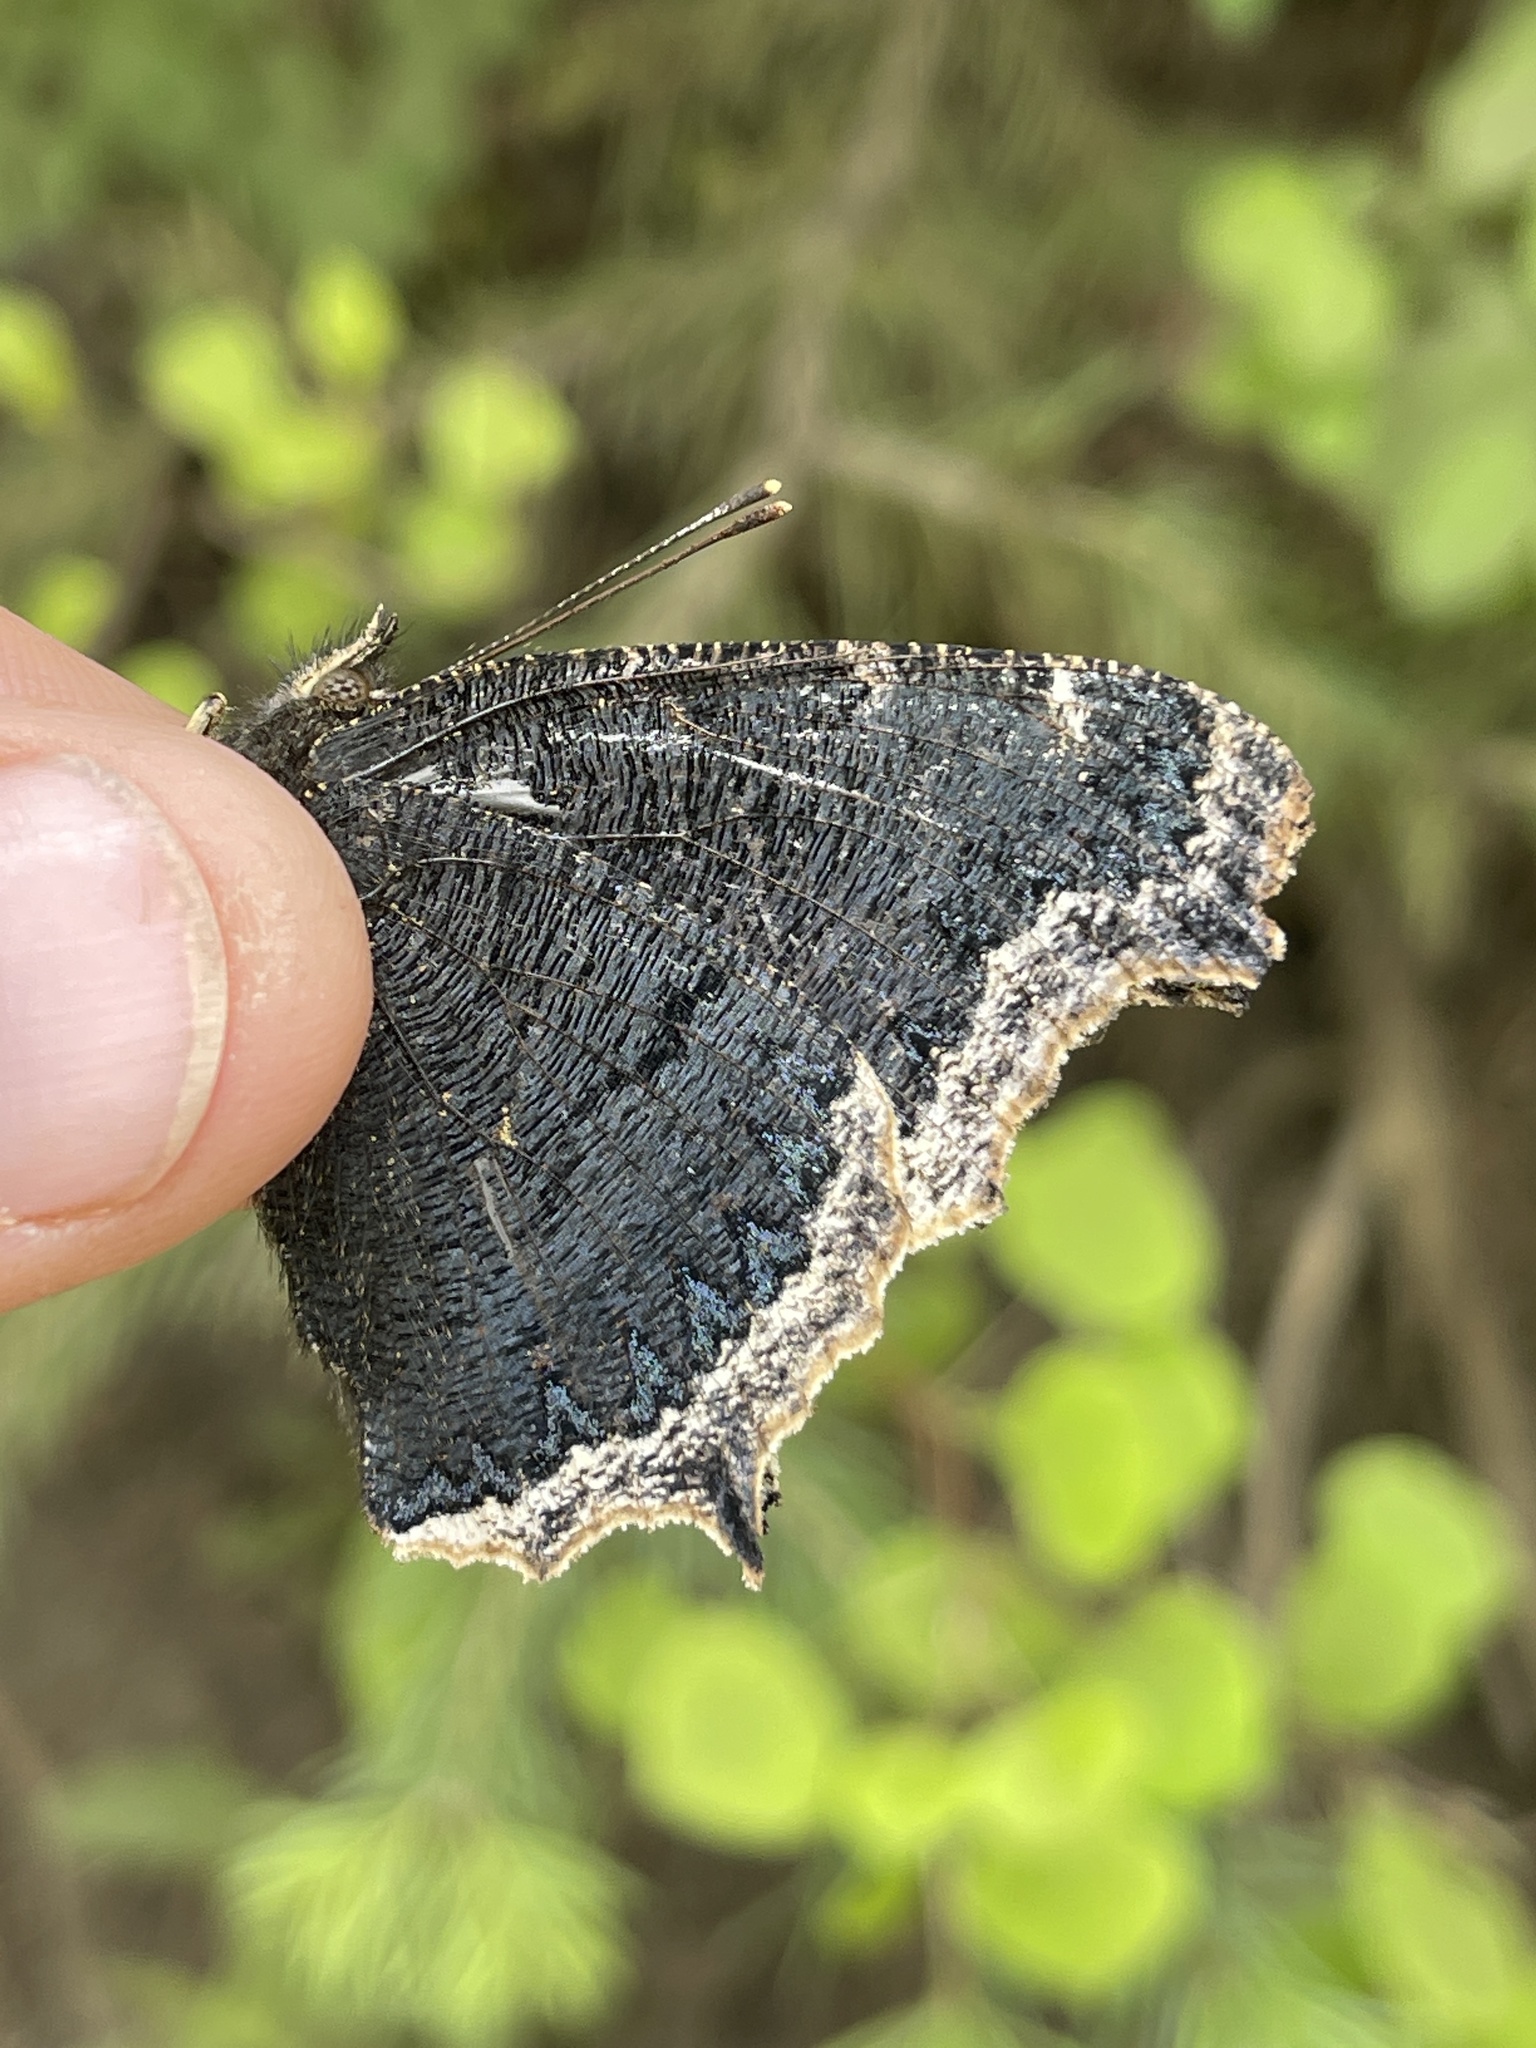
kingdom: Animalia
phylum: Arthropoda
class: Insecta
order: Lepidoptera
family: Nymphalidae
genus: Nymphalis
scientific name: Nymphalis antiopa
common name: Camberwell beauty
